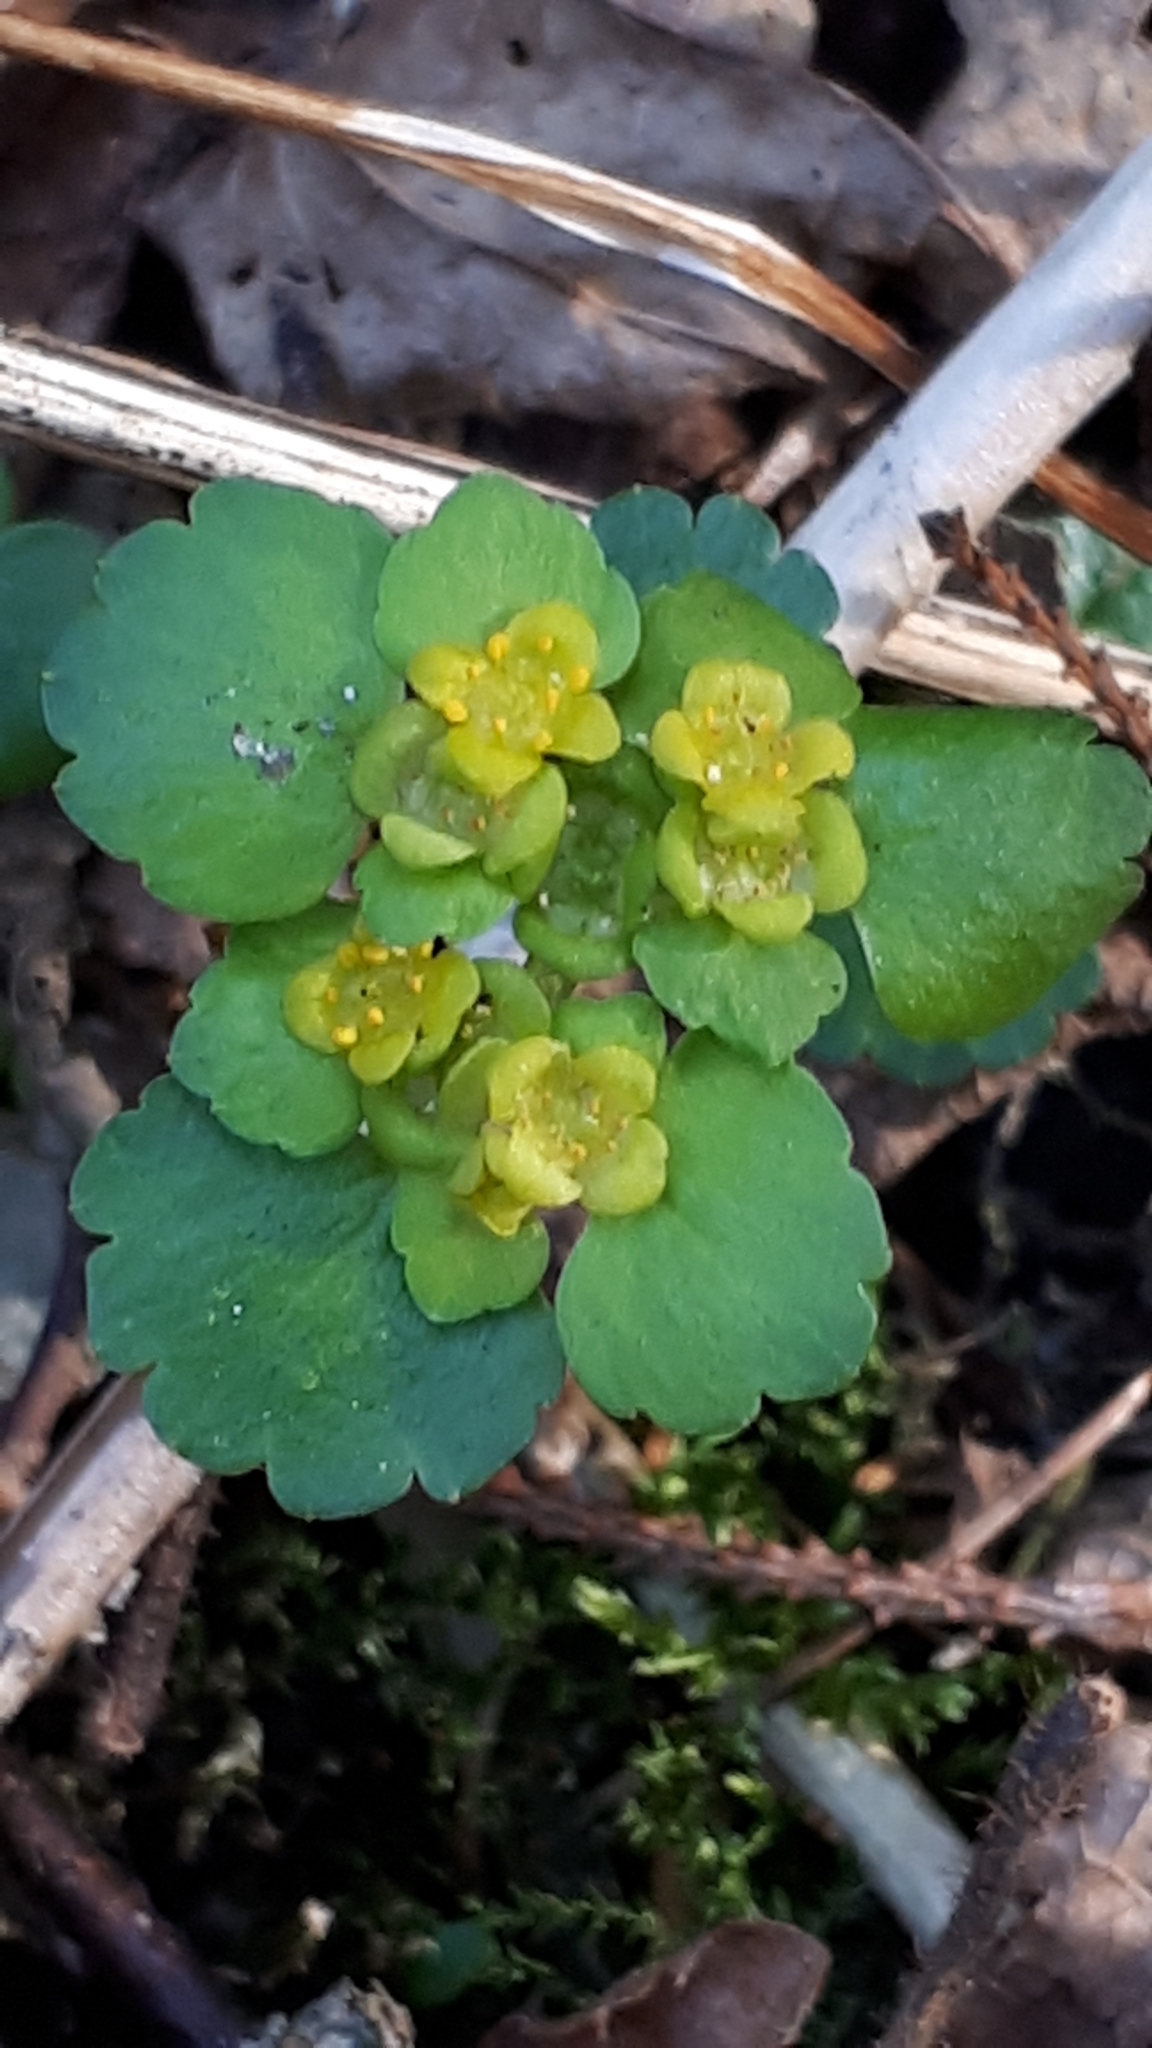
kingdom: Plantae
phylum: Tracheophyta
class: Magnoliopsida
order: Saxifragales
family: Saxifragaceae
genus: Chrysosplenium
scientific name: Chrysosplenium alternifolium
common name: Alternate-leaved golden-saxifrage
